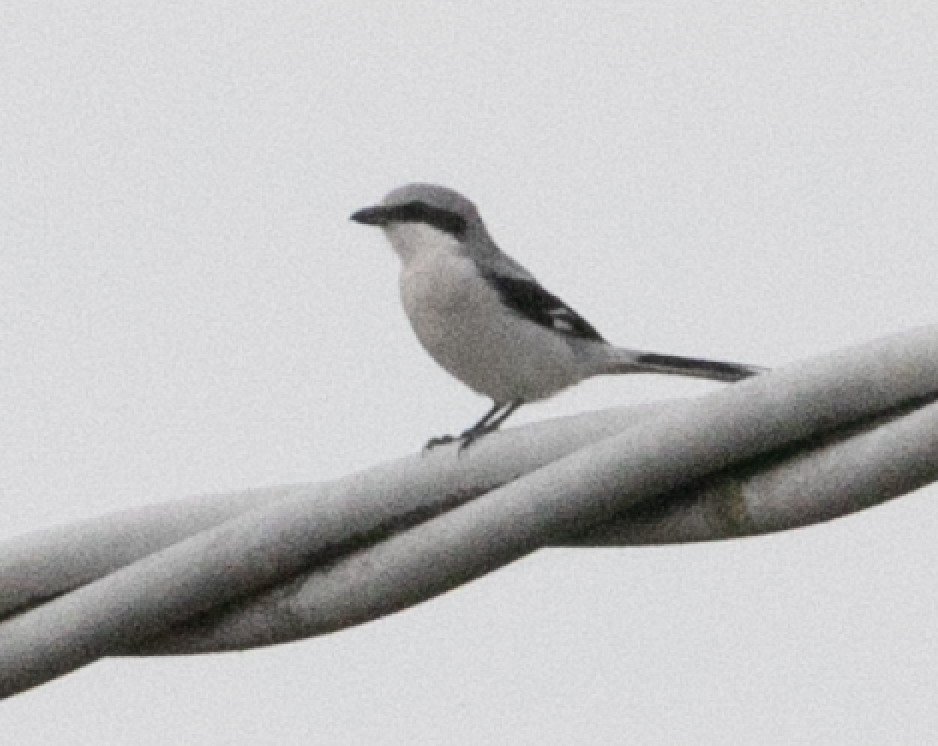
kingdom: Animalia
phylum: Chordata
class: Aves
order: Passeriformes
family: Laniidae
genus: Lanius
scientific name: Lanius excubitor
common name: Great grey shrike
